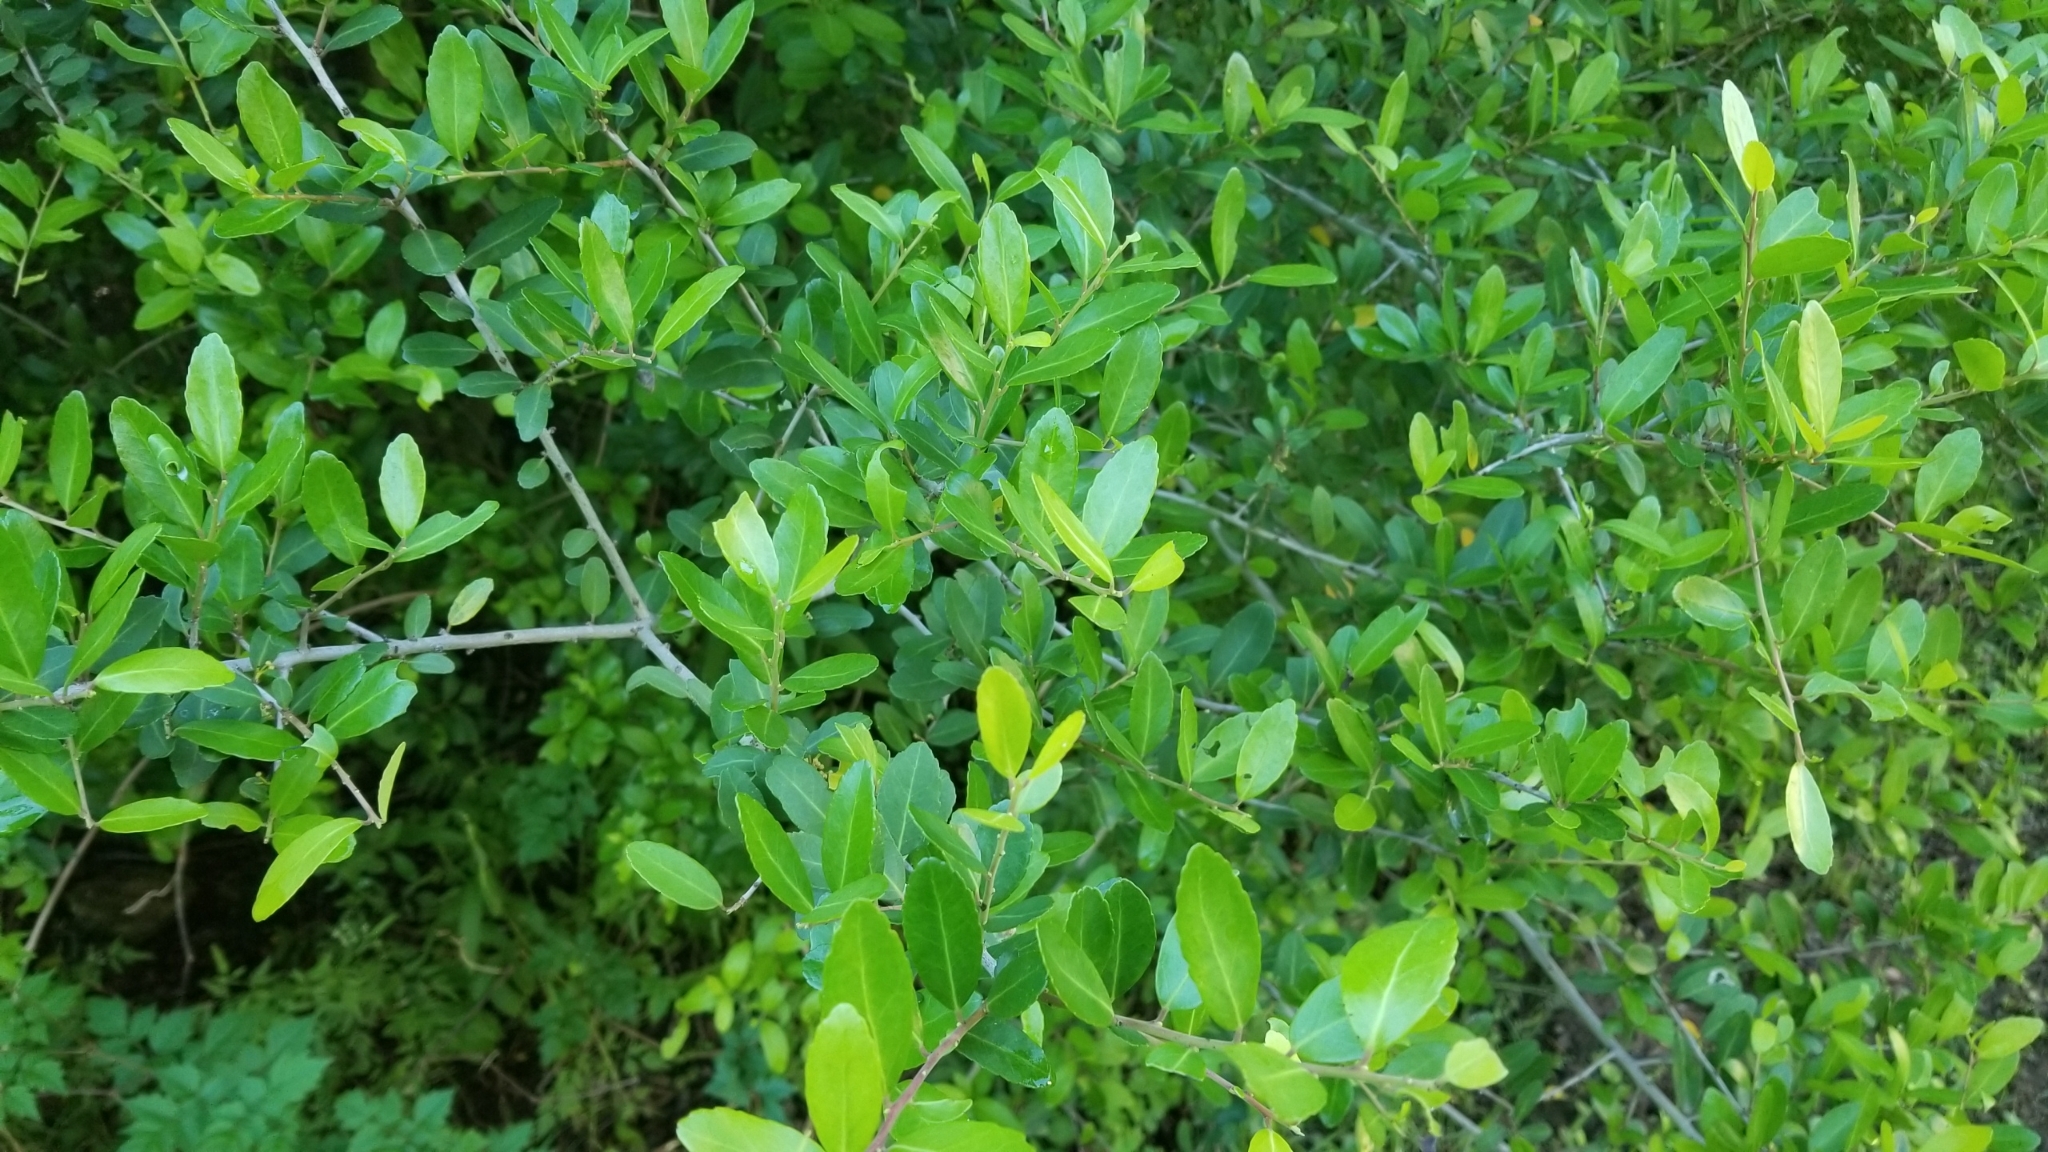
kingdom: Plantae
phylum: Tracheophyta
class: Magnoliopsida
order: Aquifoliales
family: Aquifoliaceae
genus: Ilex
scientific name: Ilex vomitoria
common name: Yaupon holly
